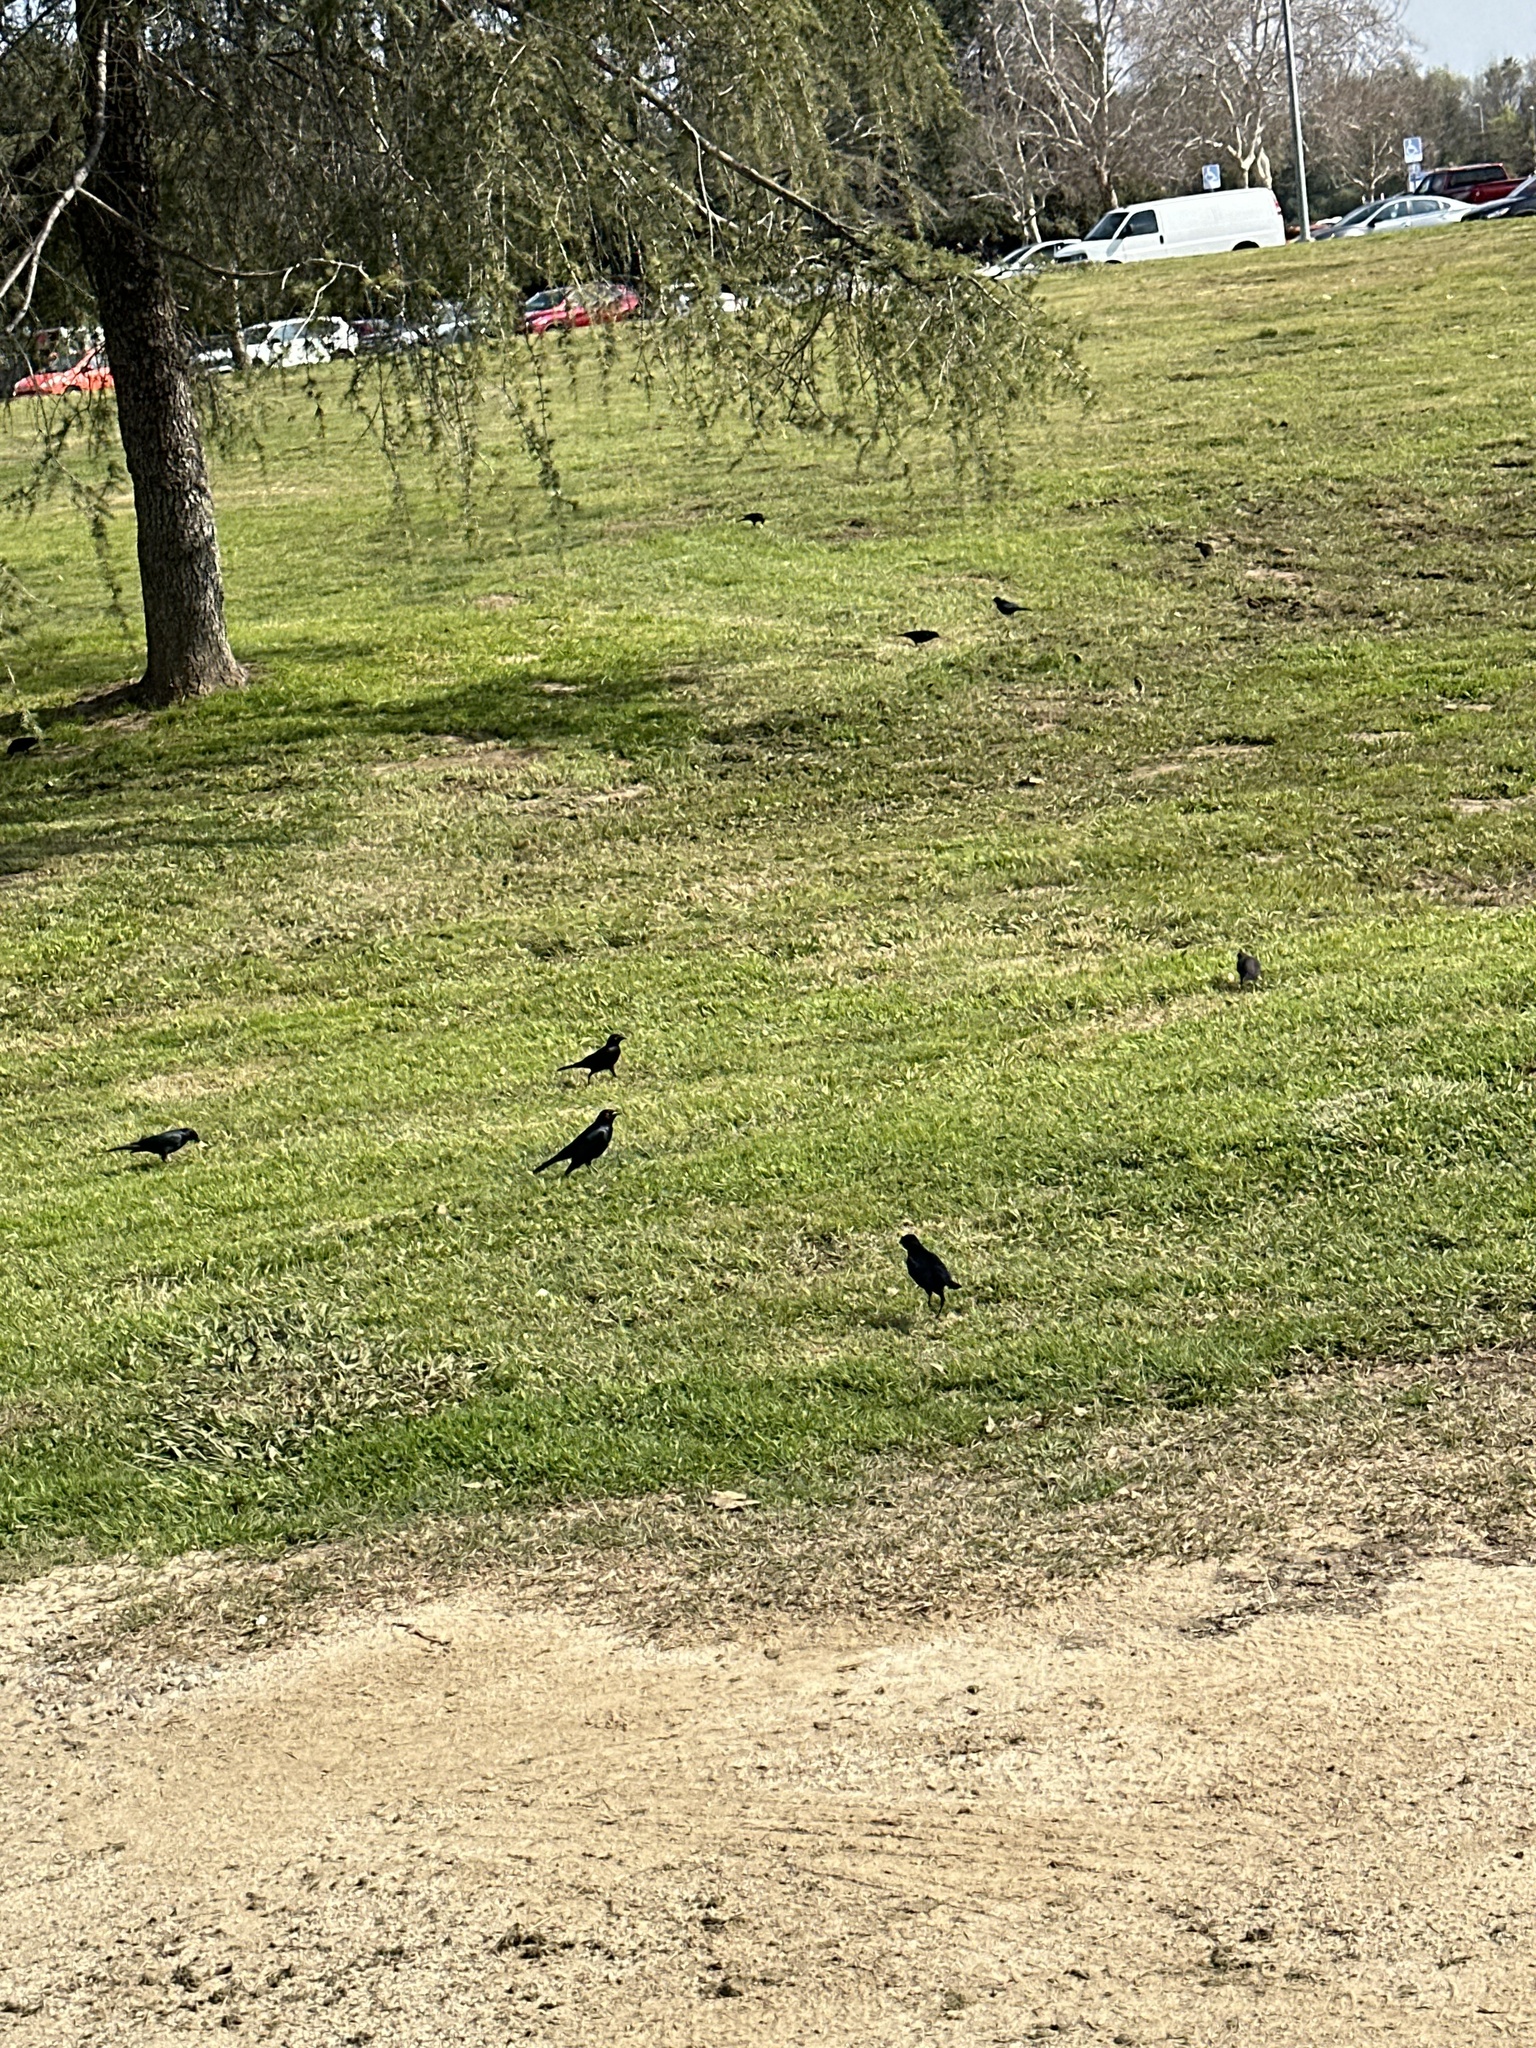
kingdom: Animalia
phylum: Chordata
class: Aves
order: Passeriformes
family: Icteridae
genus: Euphagus
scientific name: Euphagus cyanocephalus
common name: Brewer's blackbird
